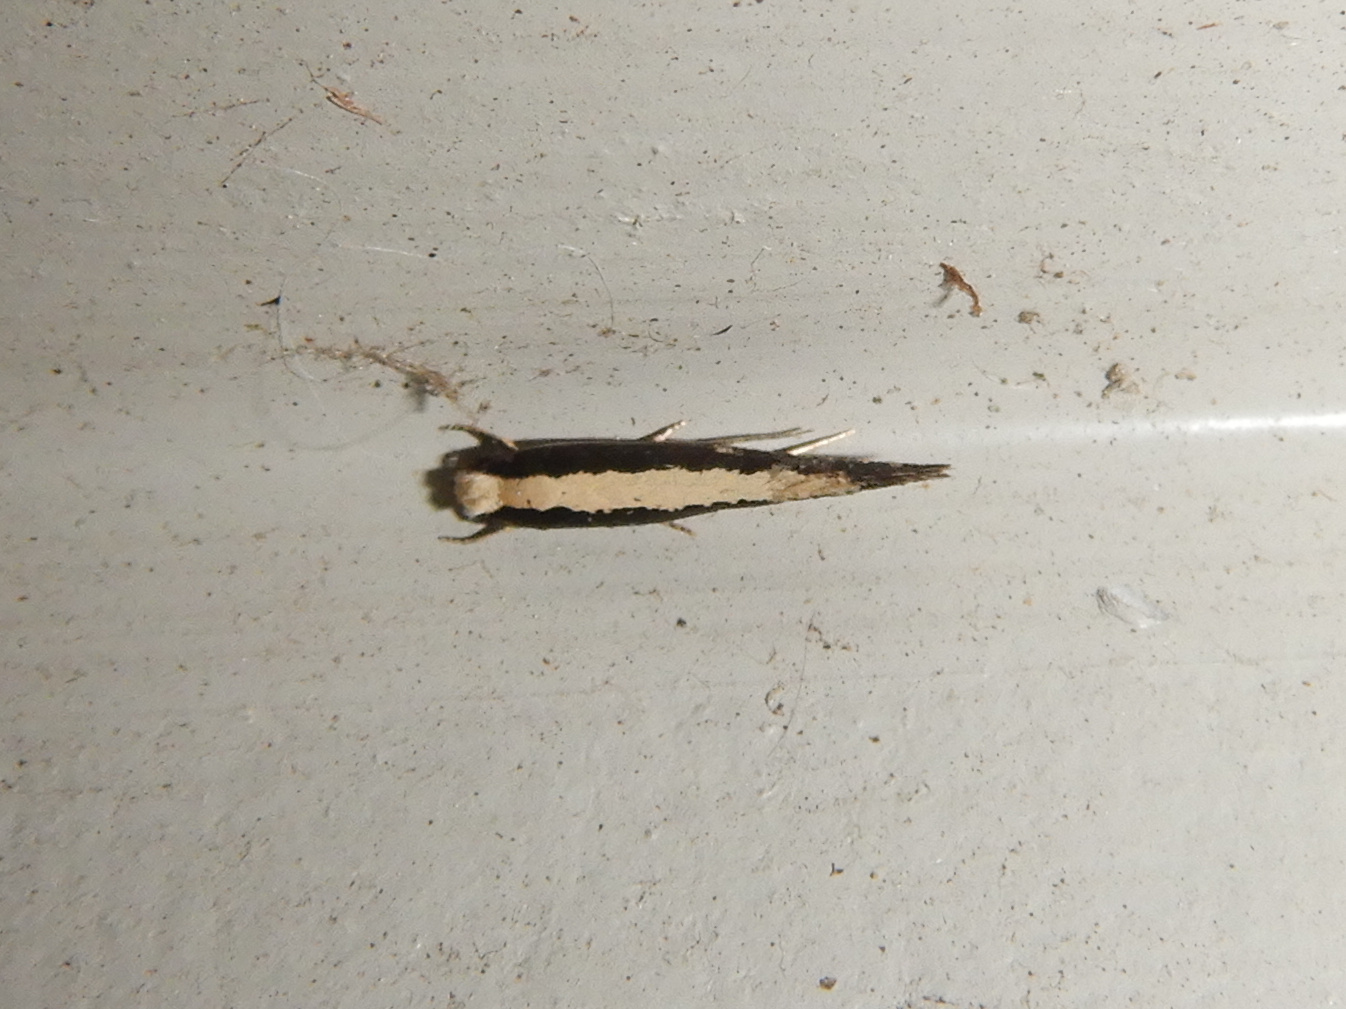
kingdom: Animalia
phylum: Arthropoda
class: Insecta
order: Lepidoptera
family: Tineidae
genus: Monopis
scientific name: Monopis ethelella
